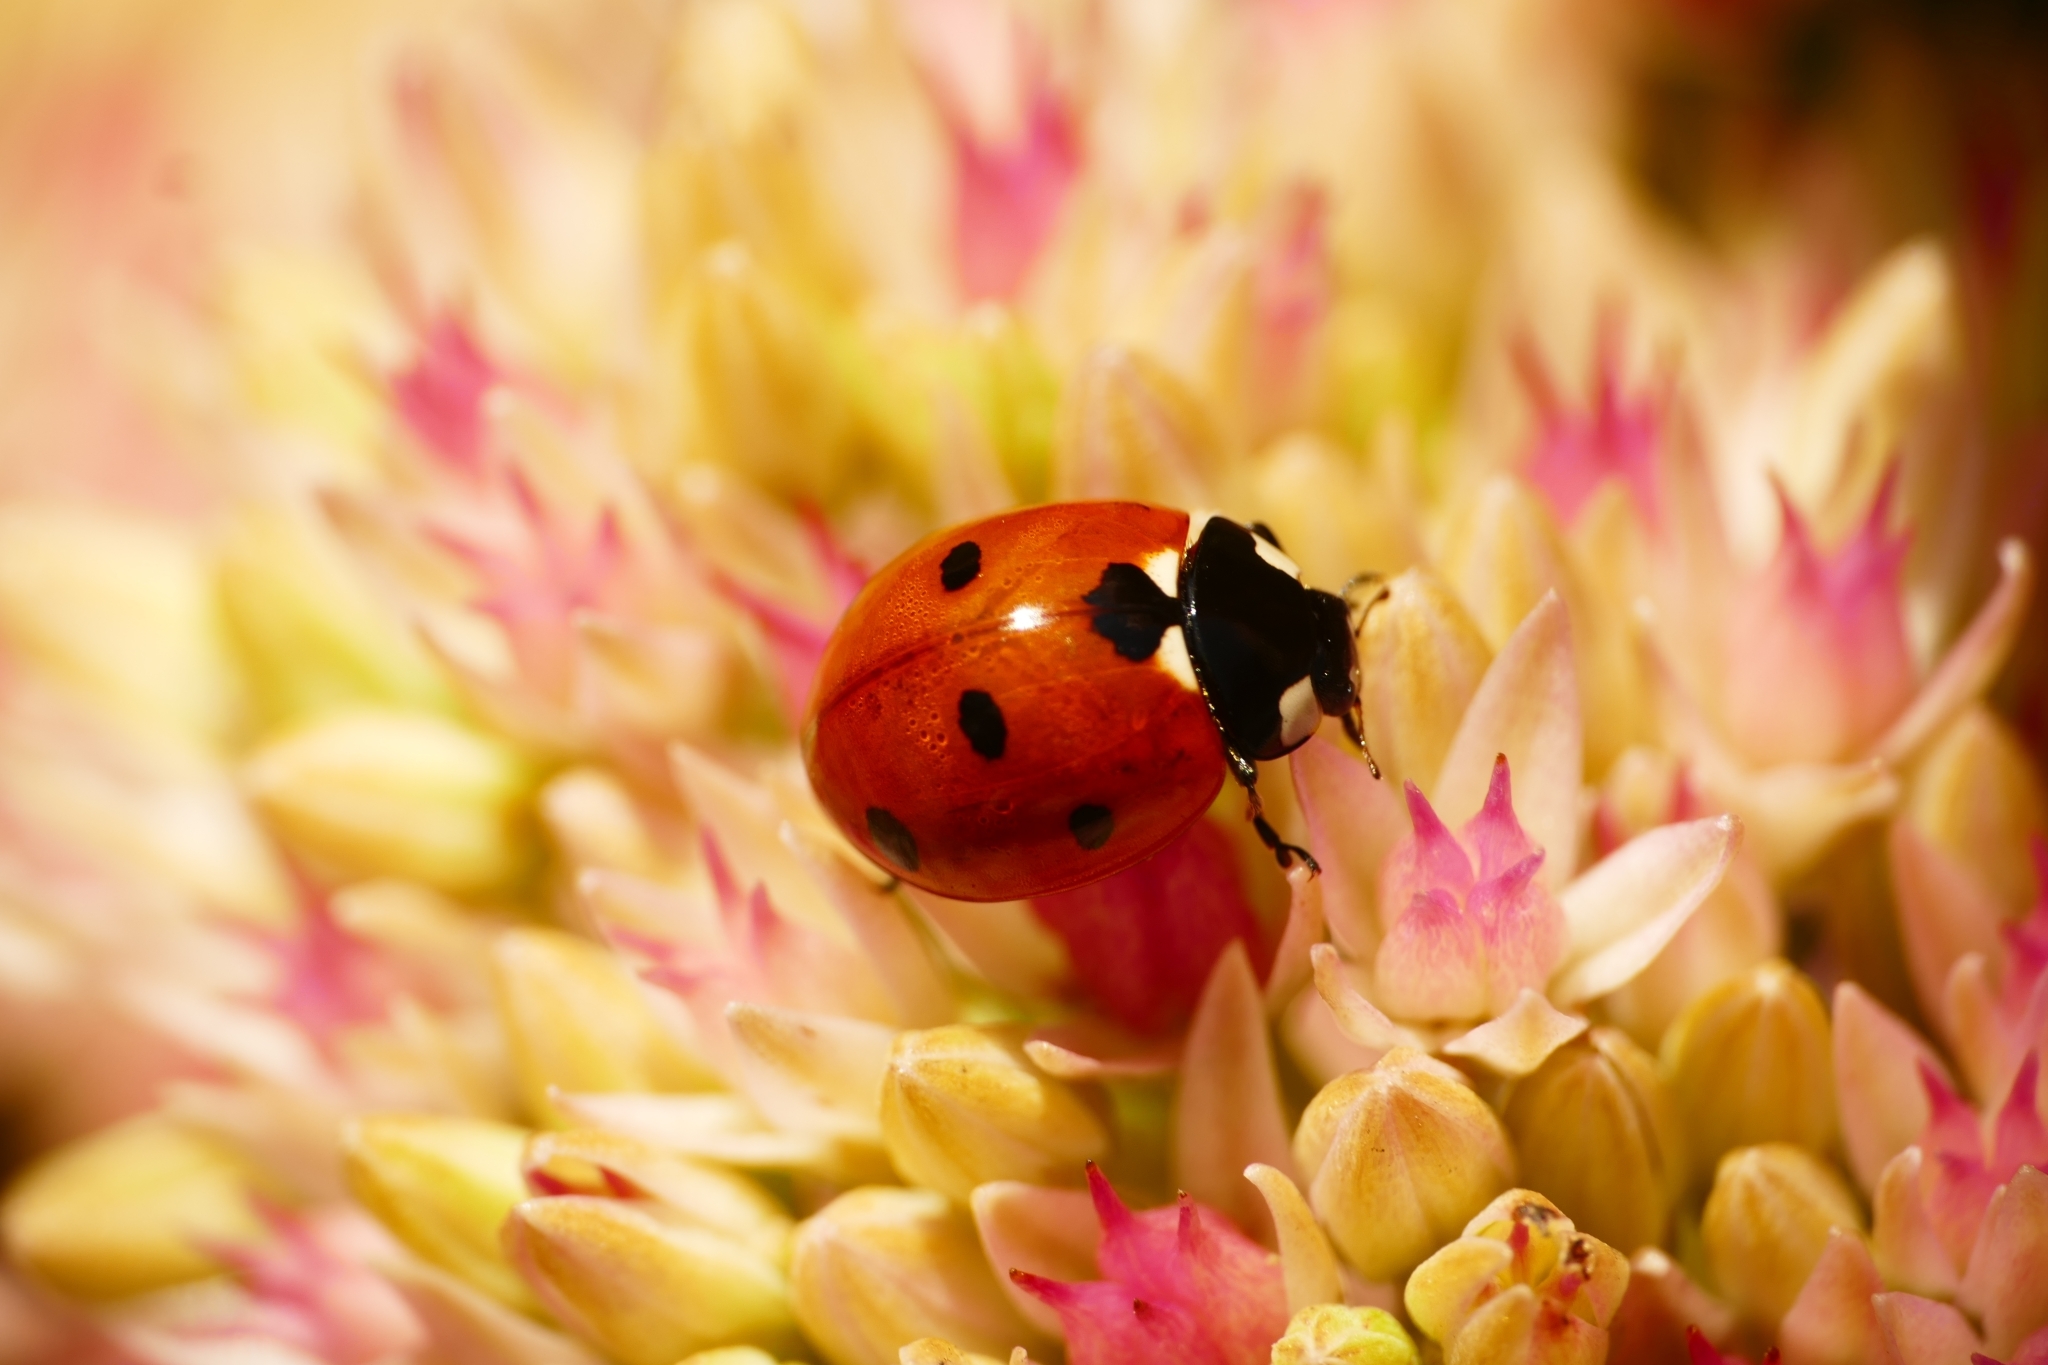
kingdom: Animalia
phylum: Arthropoda
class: Insecta
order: Coleoptera
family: Coccinellidae
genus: Coccinella
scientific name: Coccinella septempunctata
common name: Sevenspotted lady beetle
